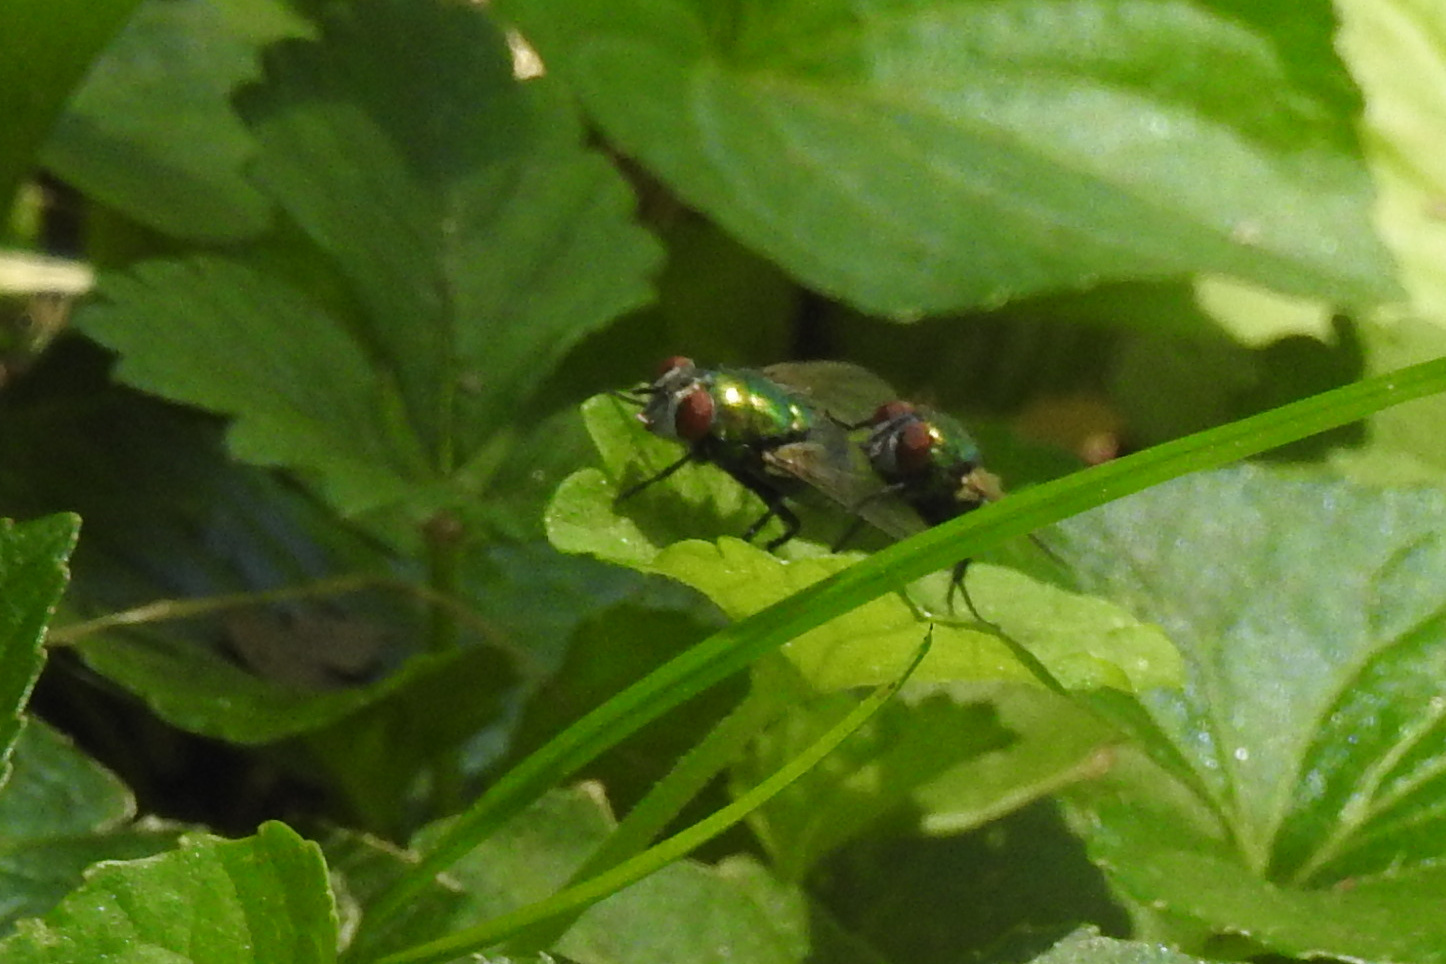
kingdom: Animalia
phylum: Arthropoda
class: Insecta
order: Diptera
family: Calliphoridae
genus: Lucilia
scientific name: Lucilia sericata
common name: Blow fly
